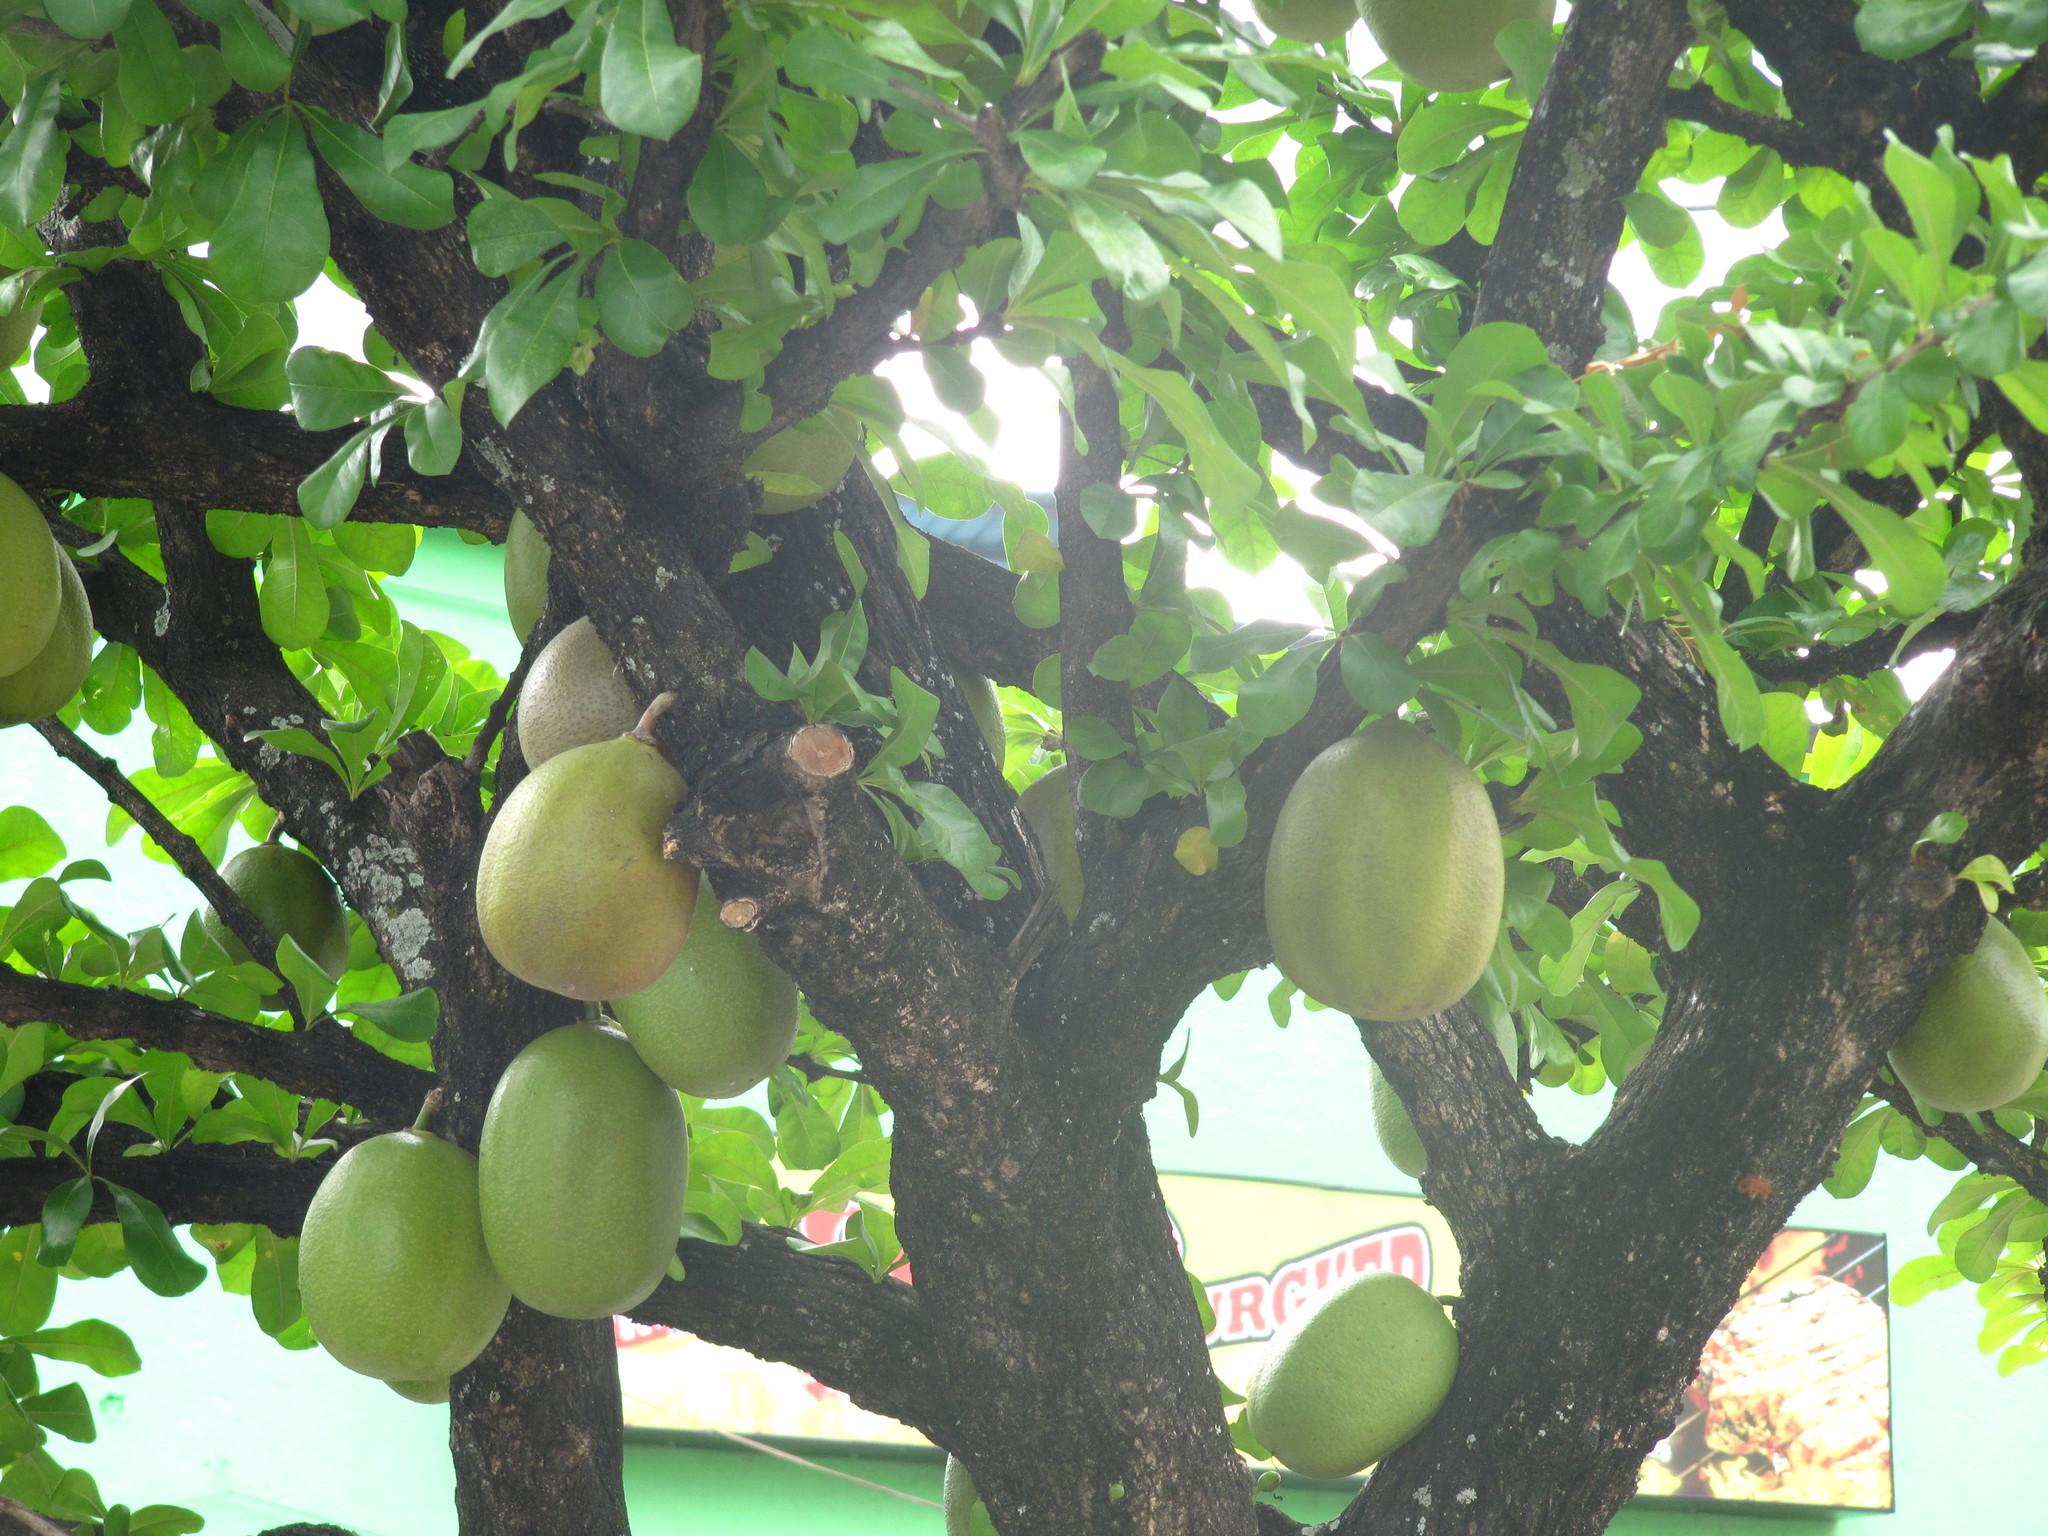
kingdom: Plantae
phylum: Tracheophyta
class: Magnoliopsida
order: Lamiales
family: Bignoniaceae
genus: Crescentia
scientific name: Crescentia cujete
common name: Calabash
